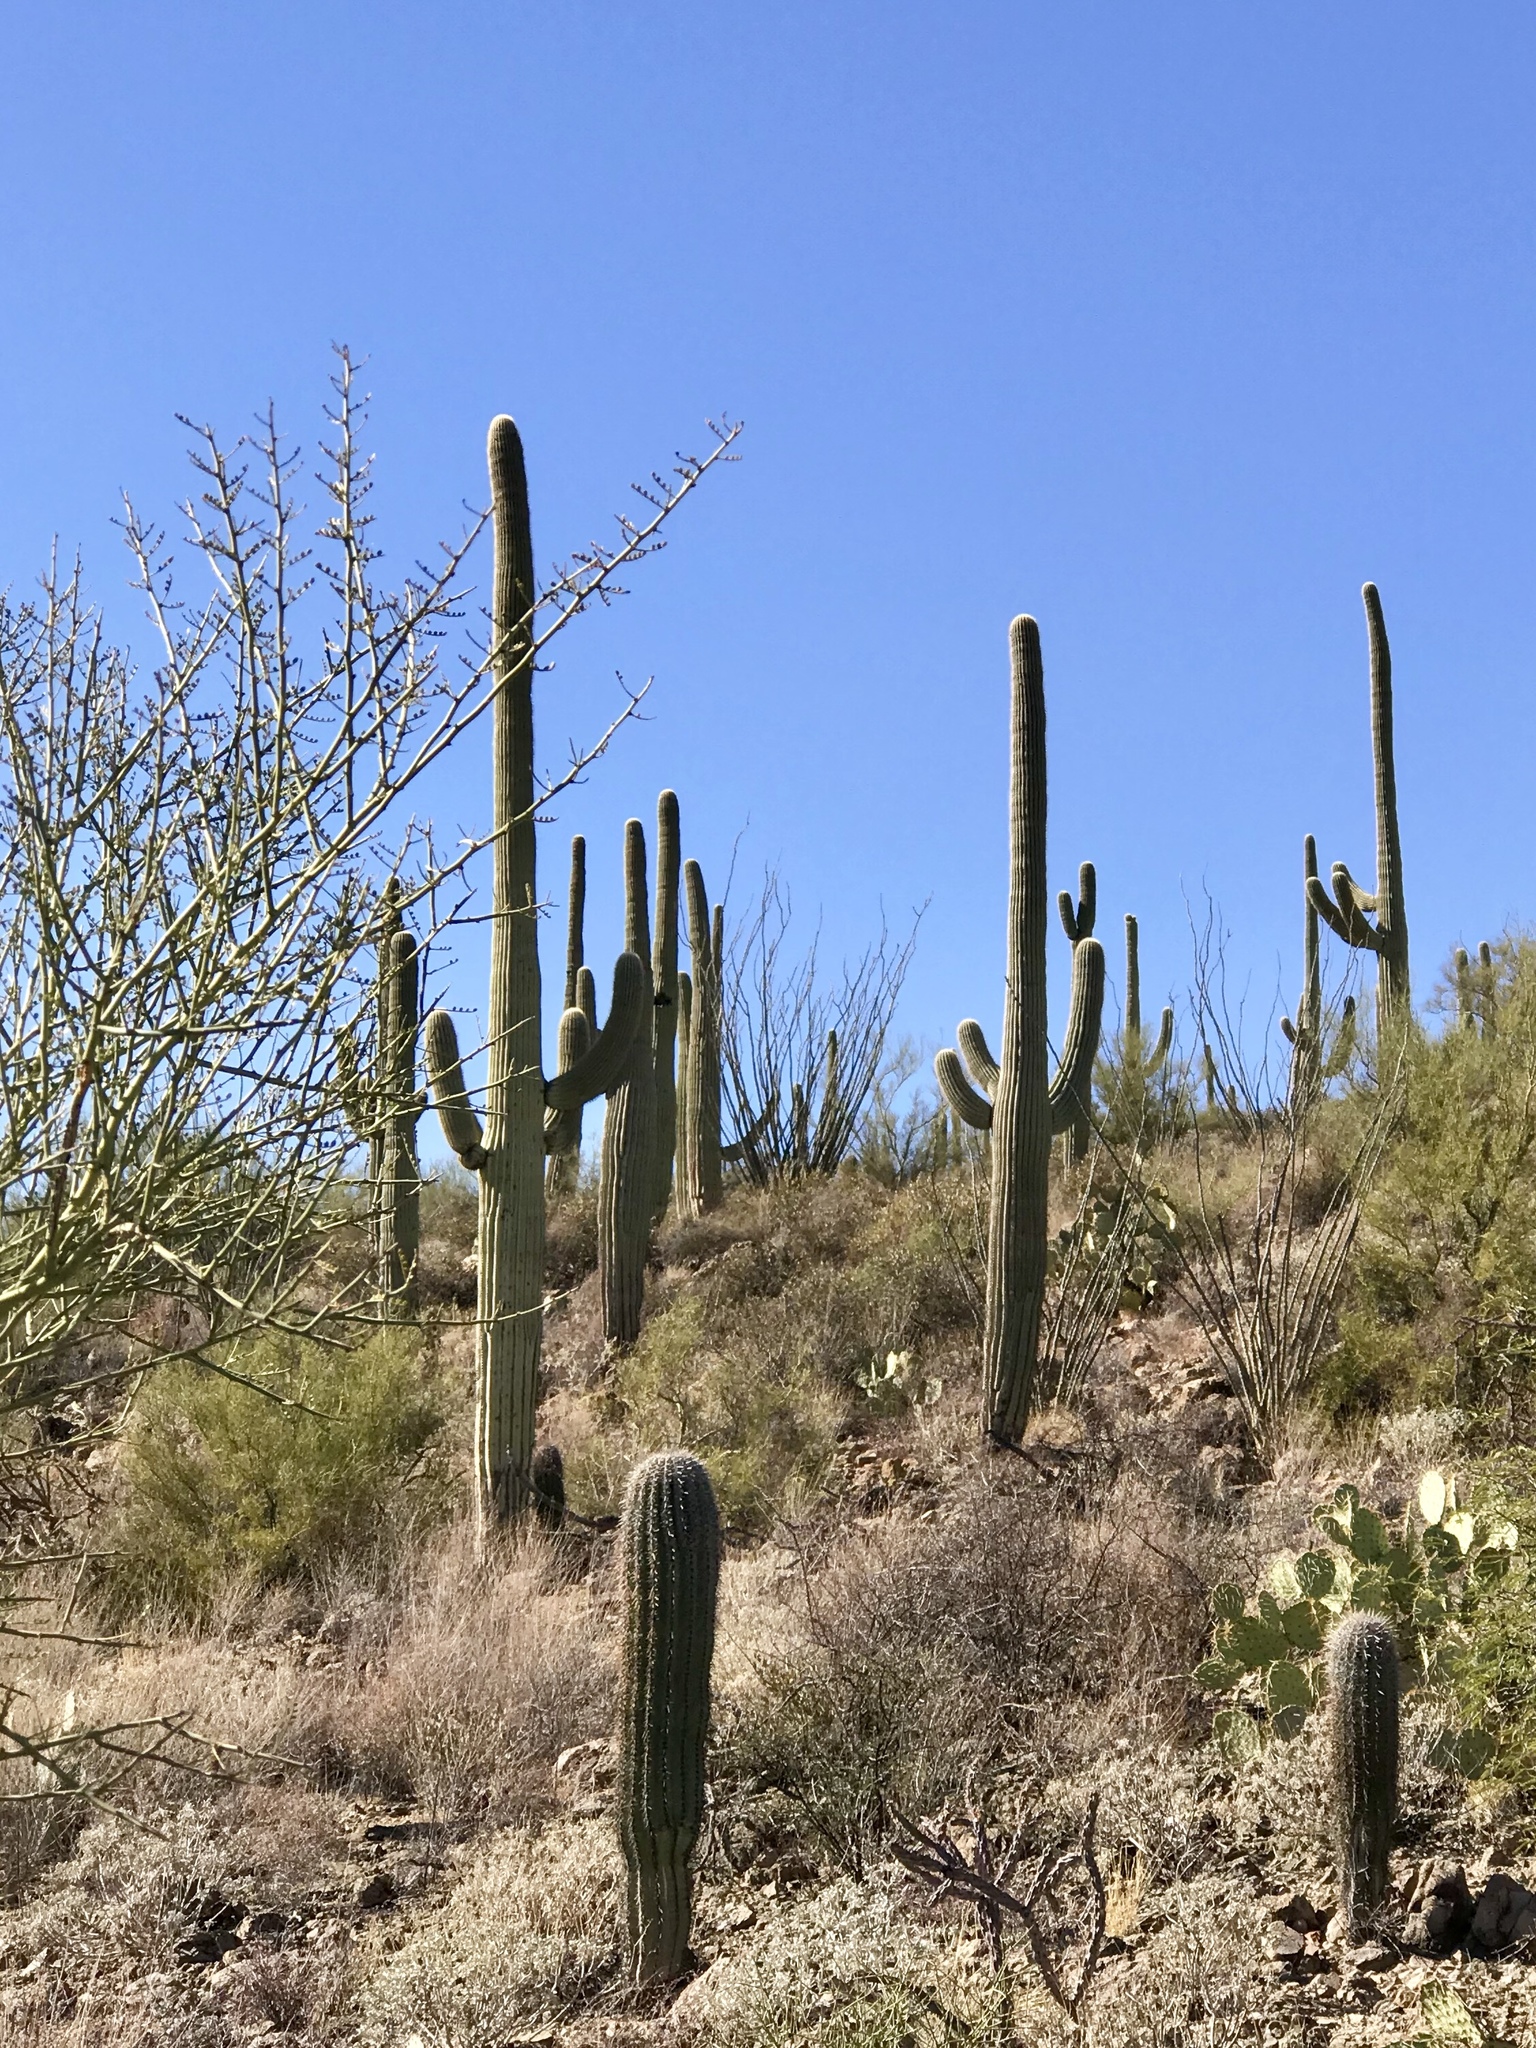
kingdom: Plantae
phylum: Tracheophyta
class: Magnoliopsida
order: Caryophyllales
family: Cactaceae
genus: Carnegiea
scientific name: Carnegiea gigantea
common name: Saguaro
